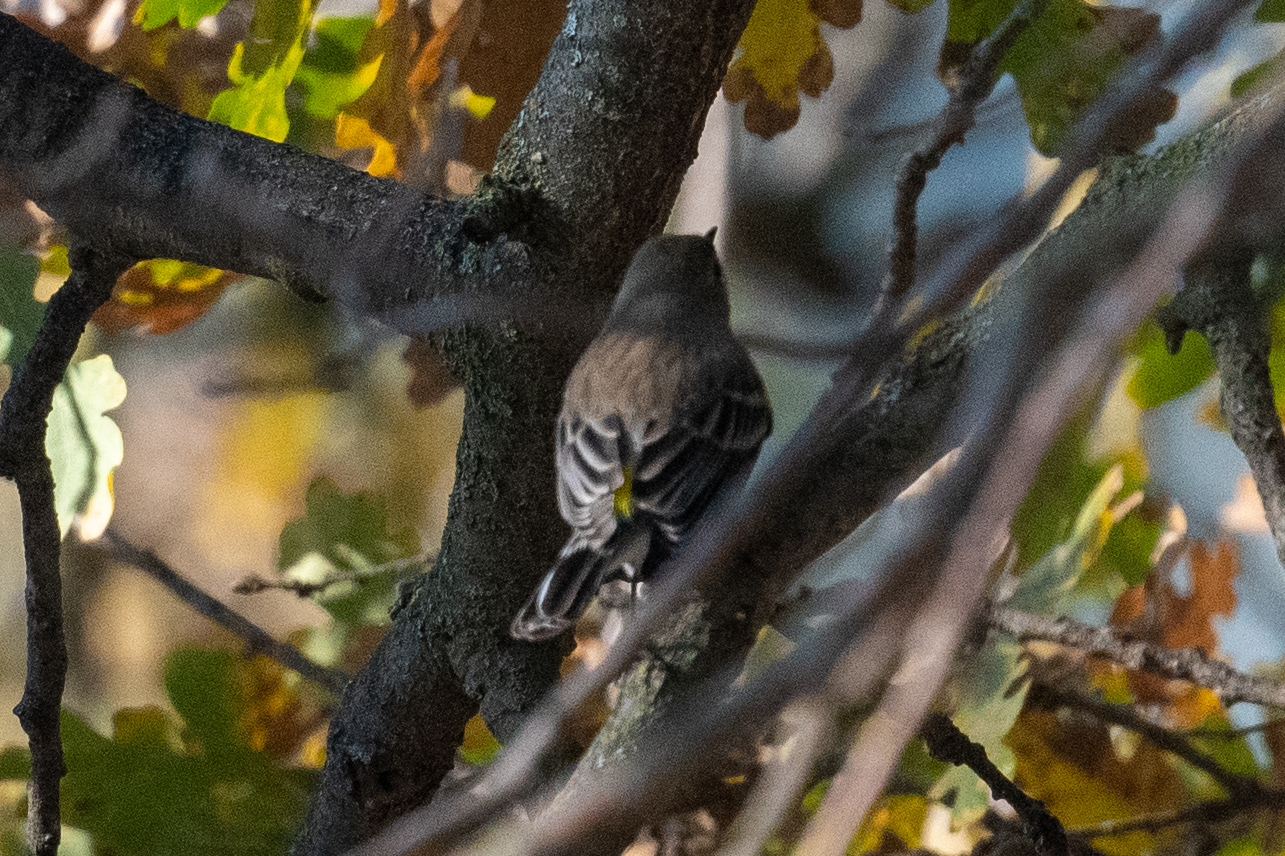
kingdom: Animalia
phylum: Chordata
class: Aves
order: Passeriformes
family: Parulidae
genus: Setophaga
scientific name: Setophaga coronata
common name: Myrtle warbler
